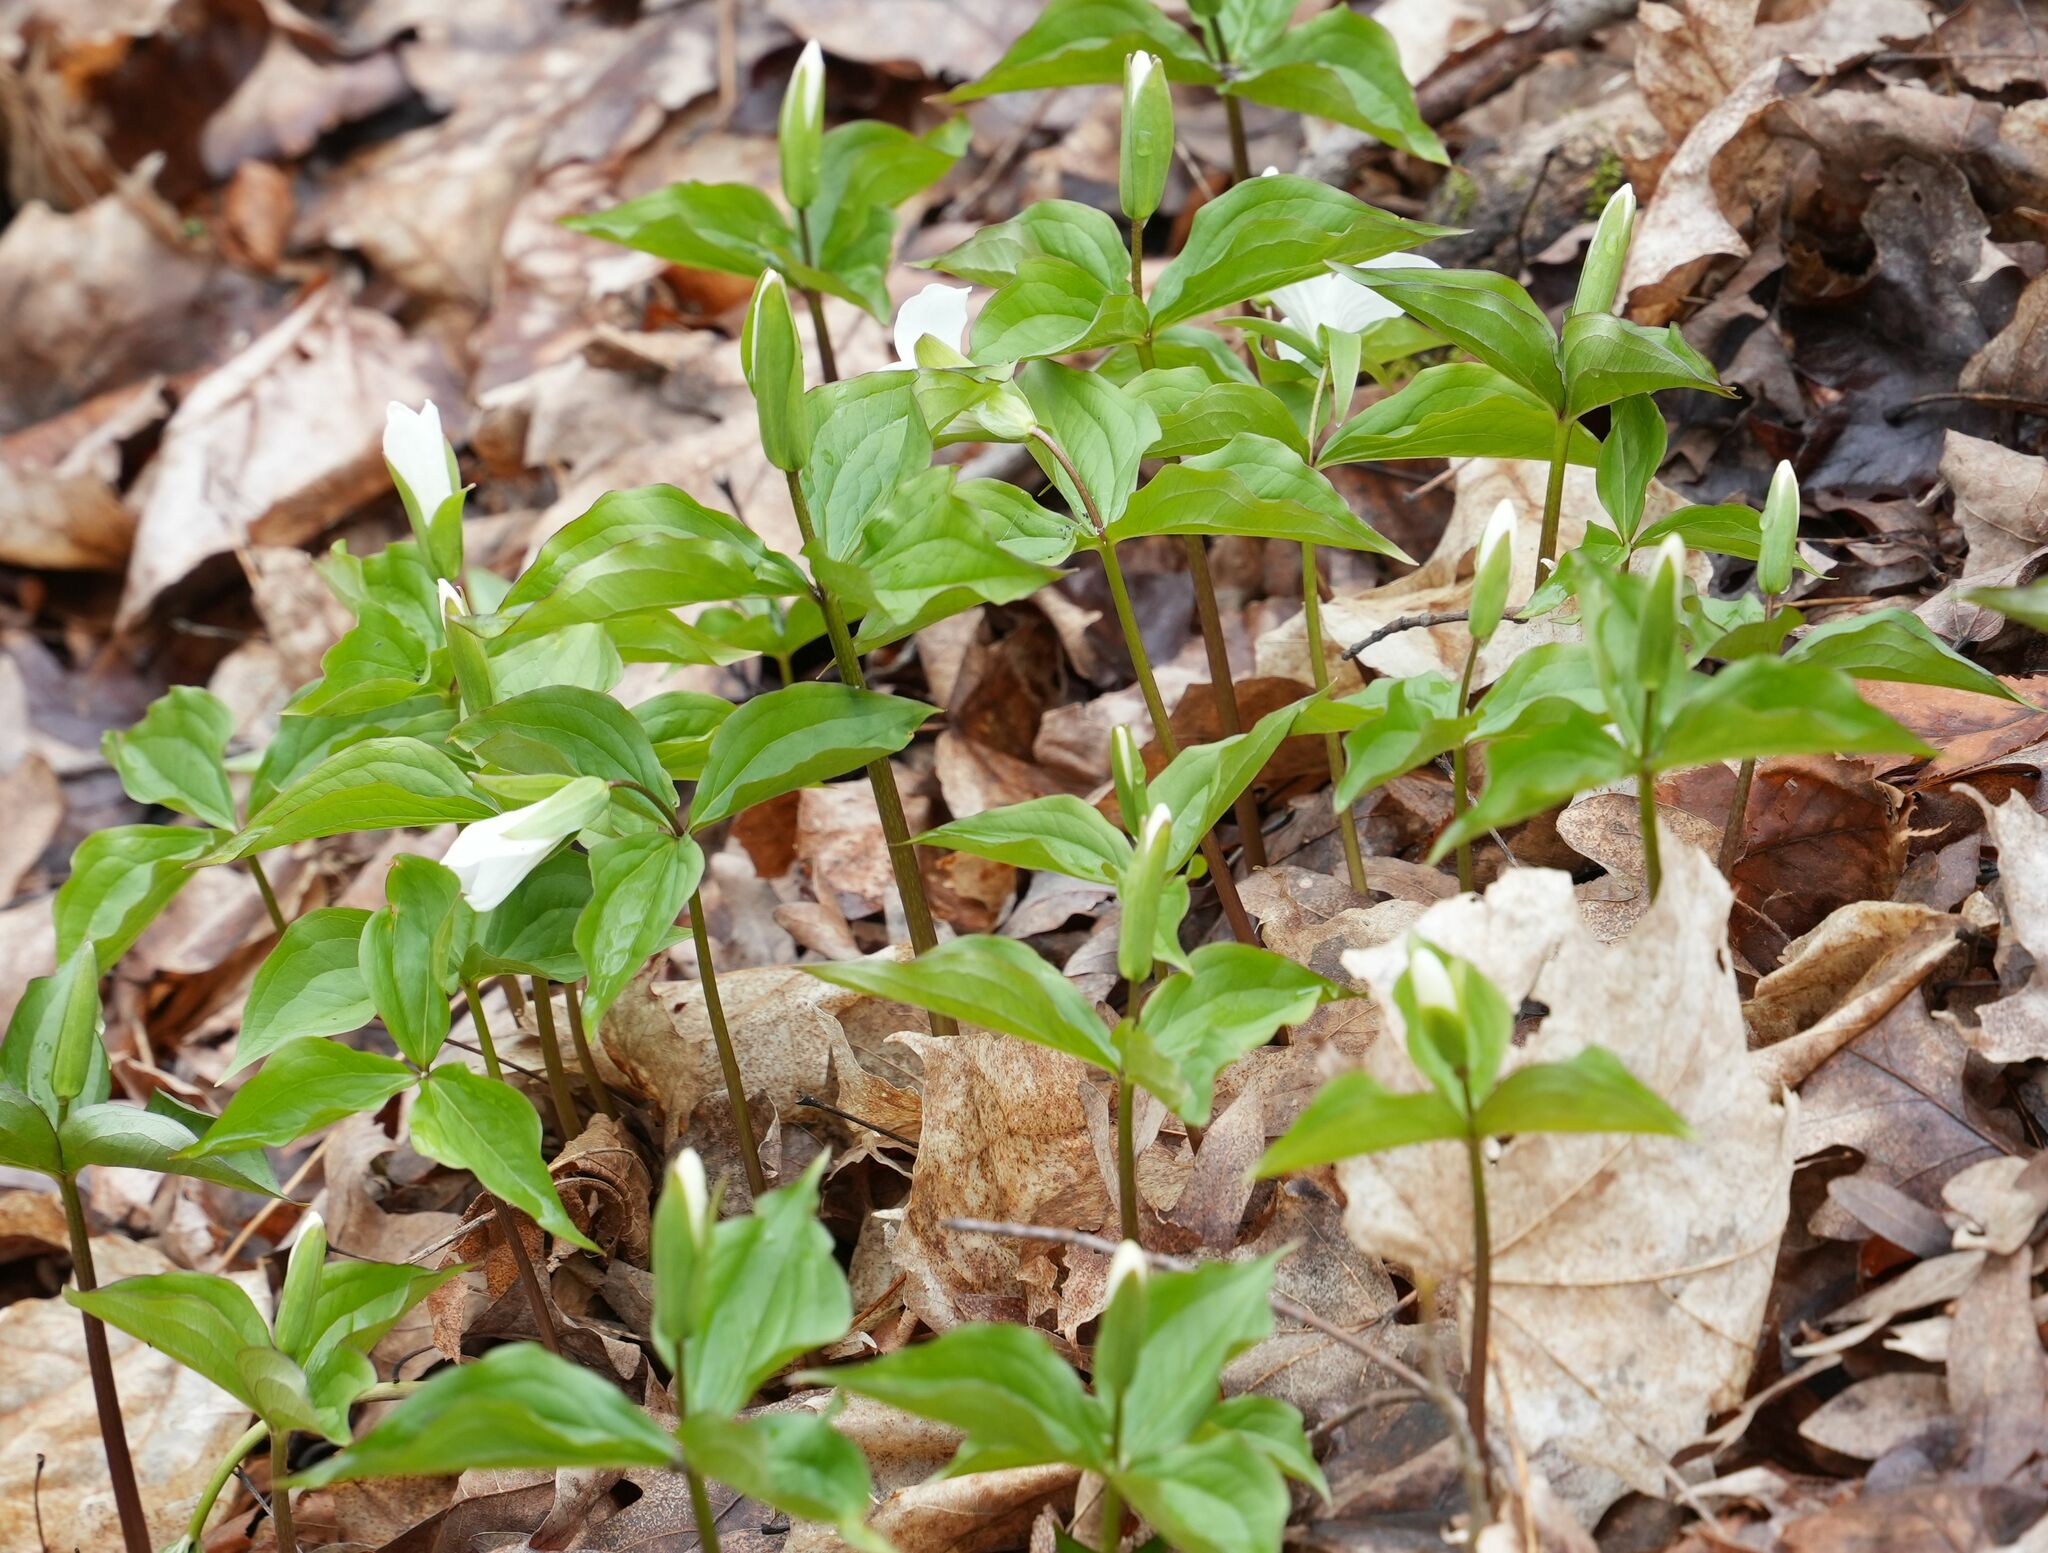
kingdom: Plantae
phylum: Tracheophyta
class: Liliopsida
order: Liliales
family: Melanthiaceae
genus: Trillium
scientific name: Trillium grandiflorum
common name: Great white trillium
